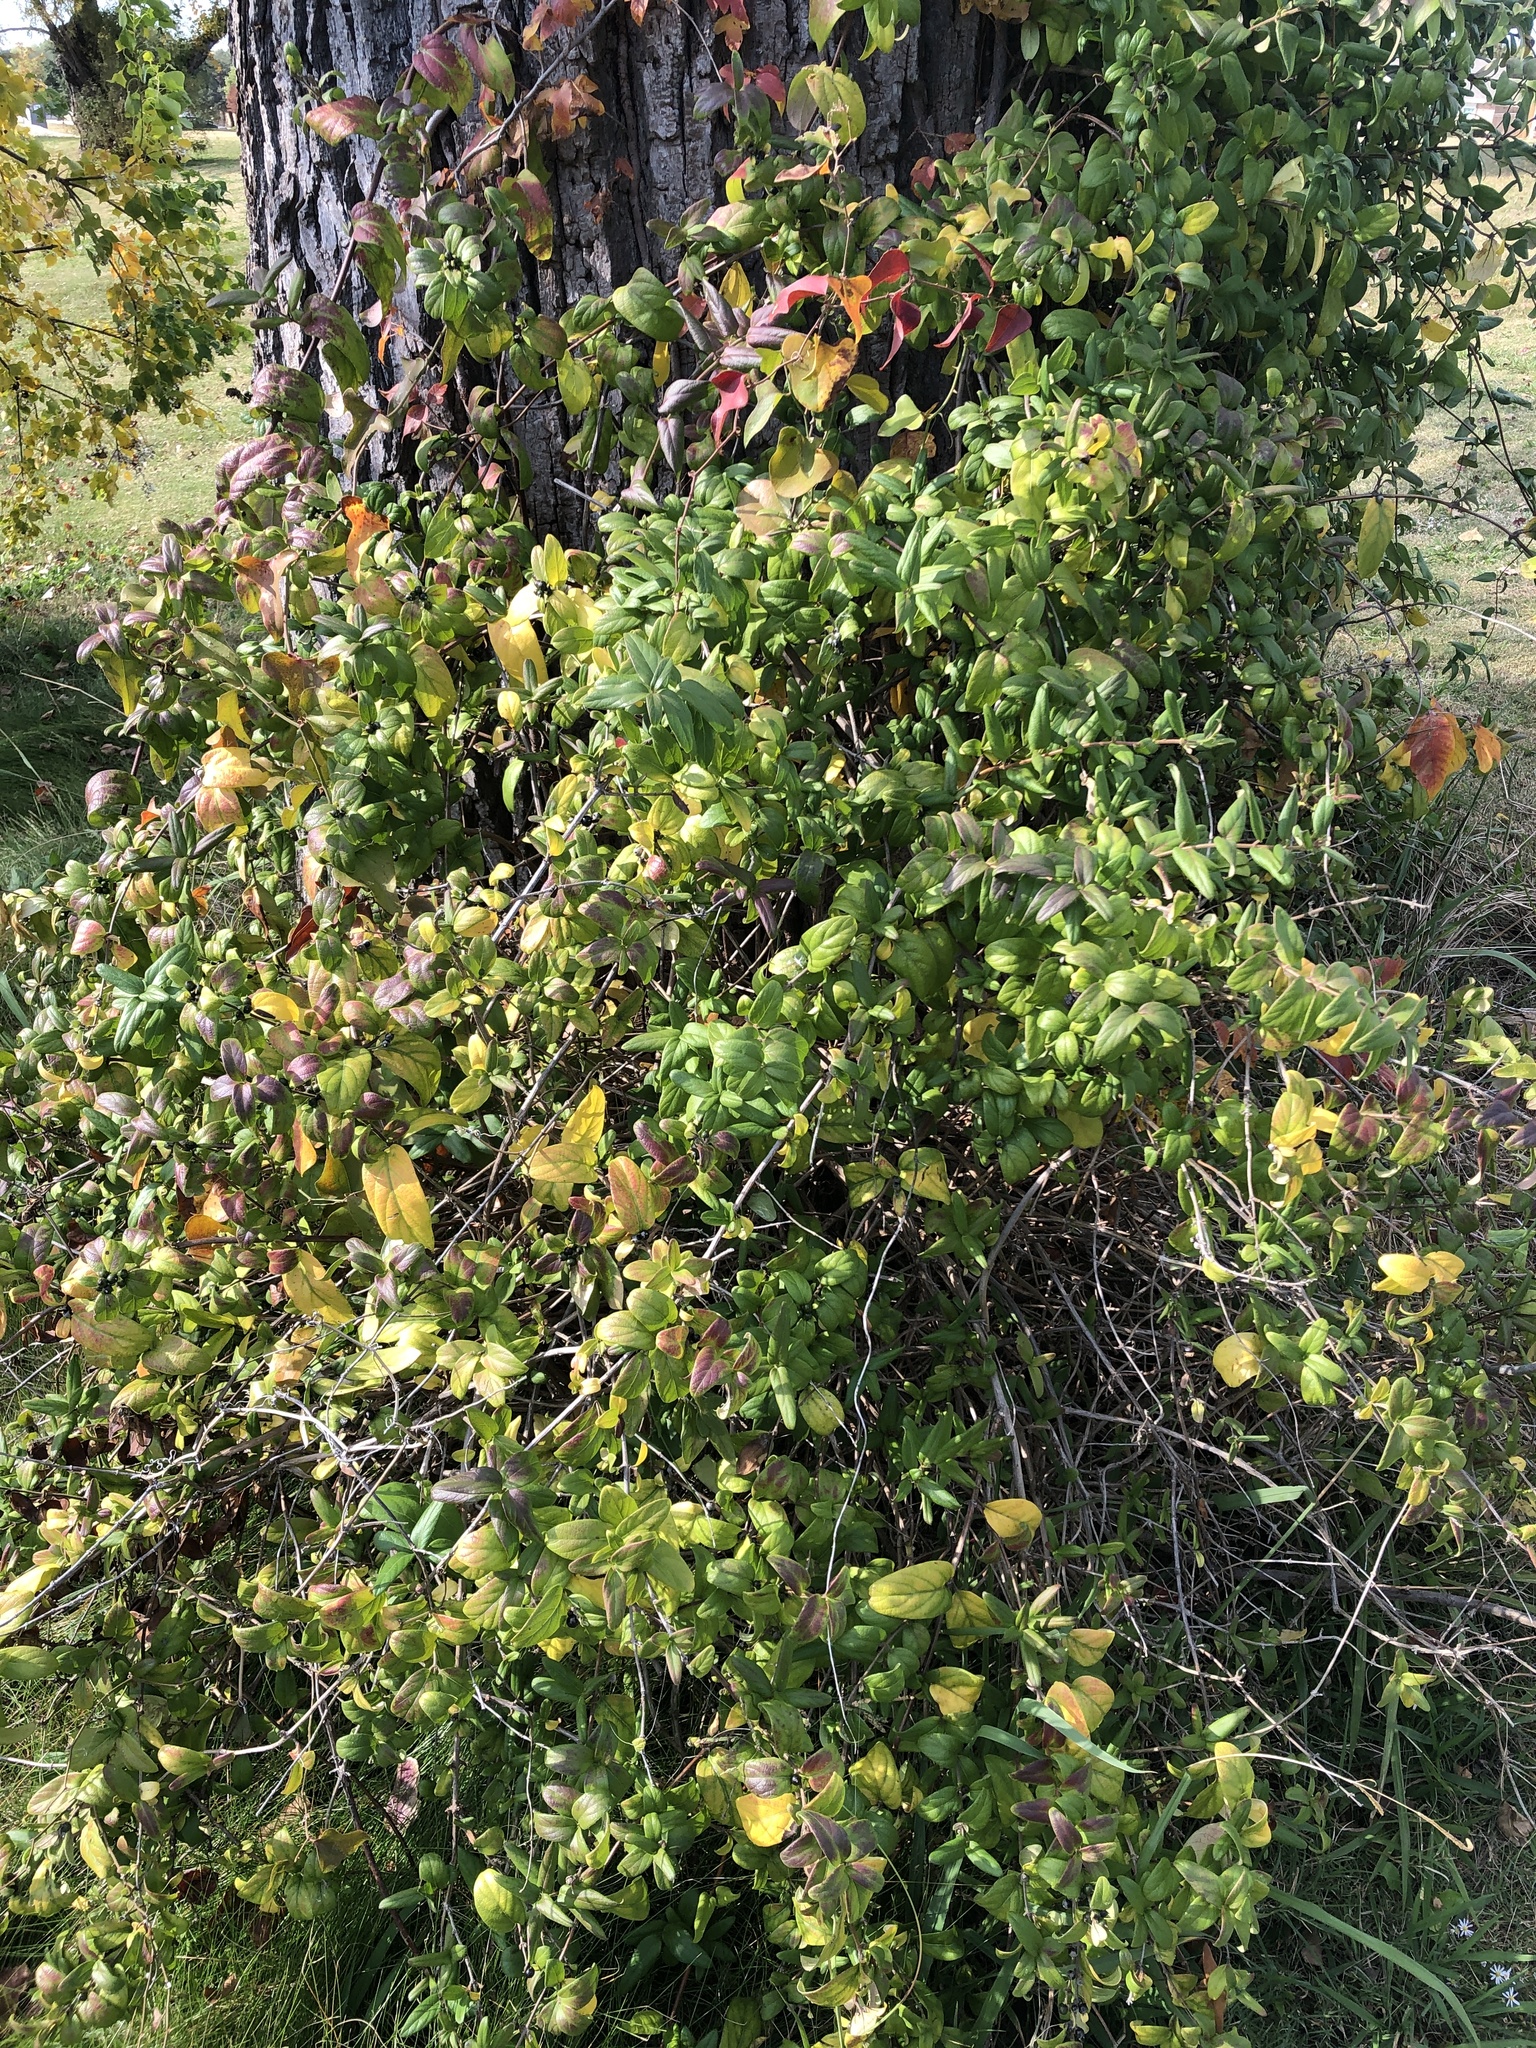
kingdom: Plantae
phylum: Tracheophyta
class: Magnoliopsida
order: Dipsacales
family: Caprifoliaceae
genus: Lonicera
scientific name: Lonicera japonica
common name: Japanese honeysuckle
